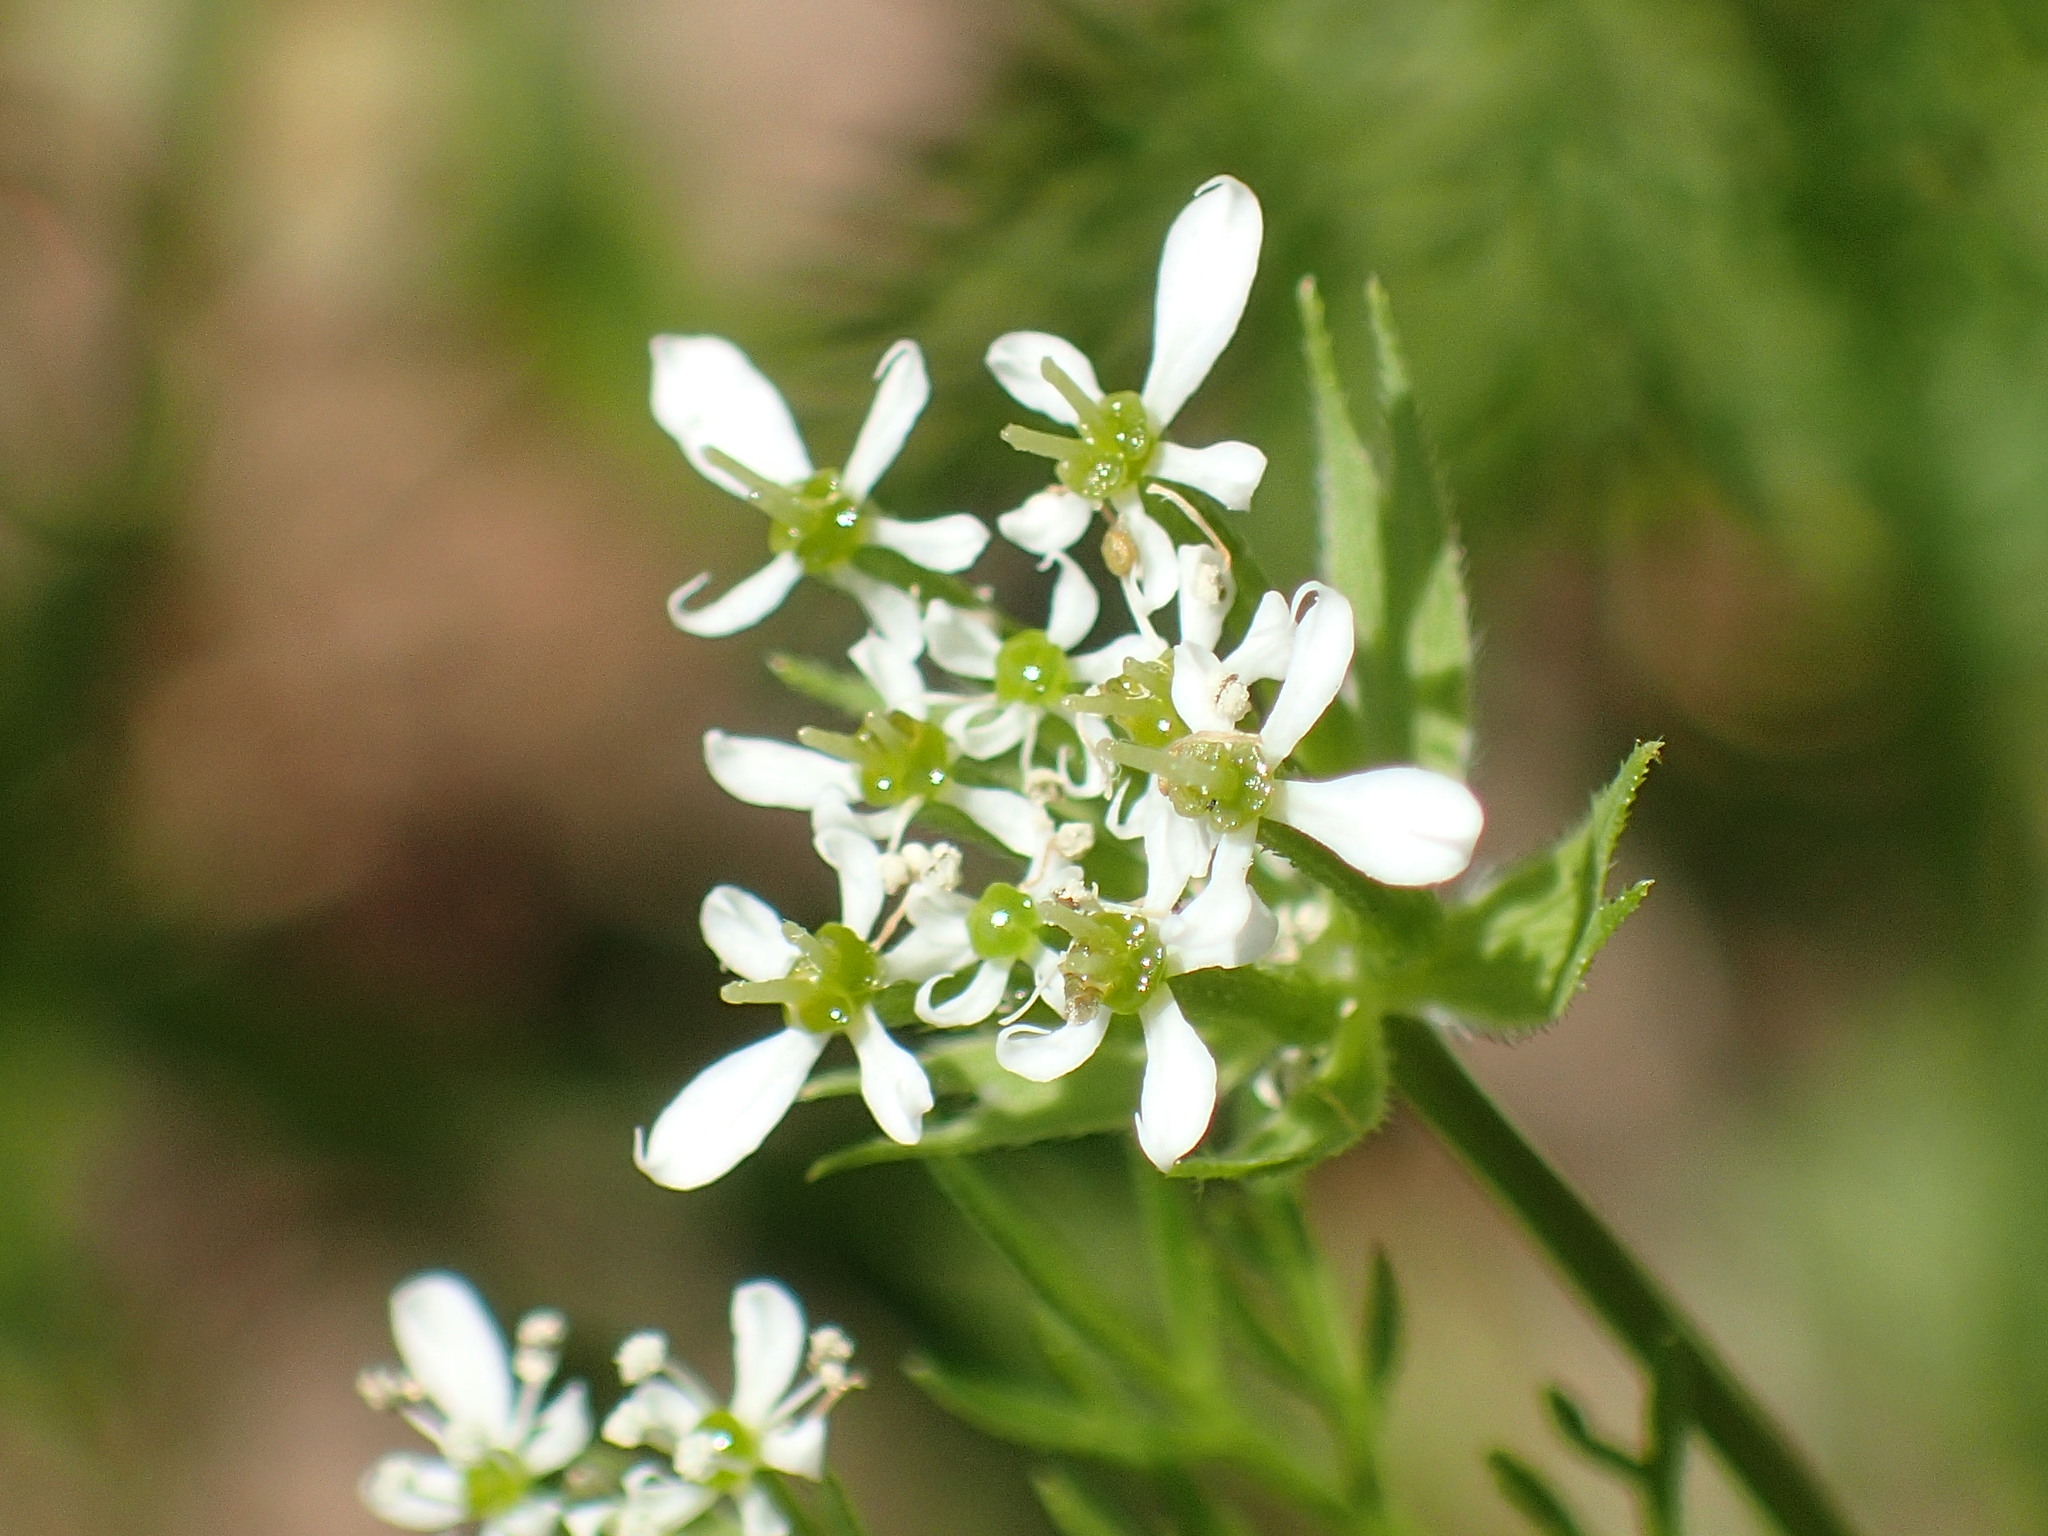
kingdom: Plantae
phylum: Tracheophyta
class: Magnoliopsida
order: Apiales
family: Apiaceae
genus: Scandix
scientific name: Scandix pecten-veneris
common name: Shepherd's-needle
